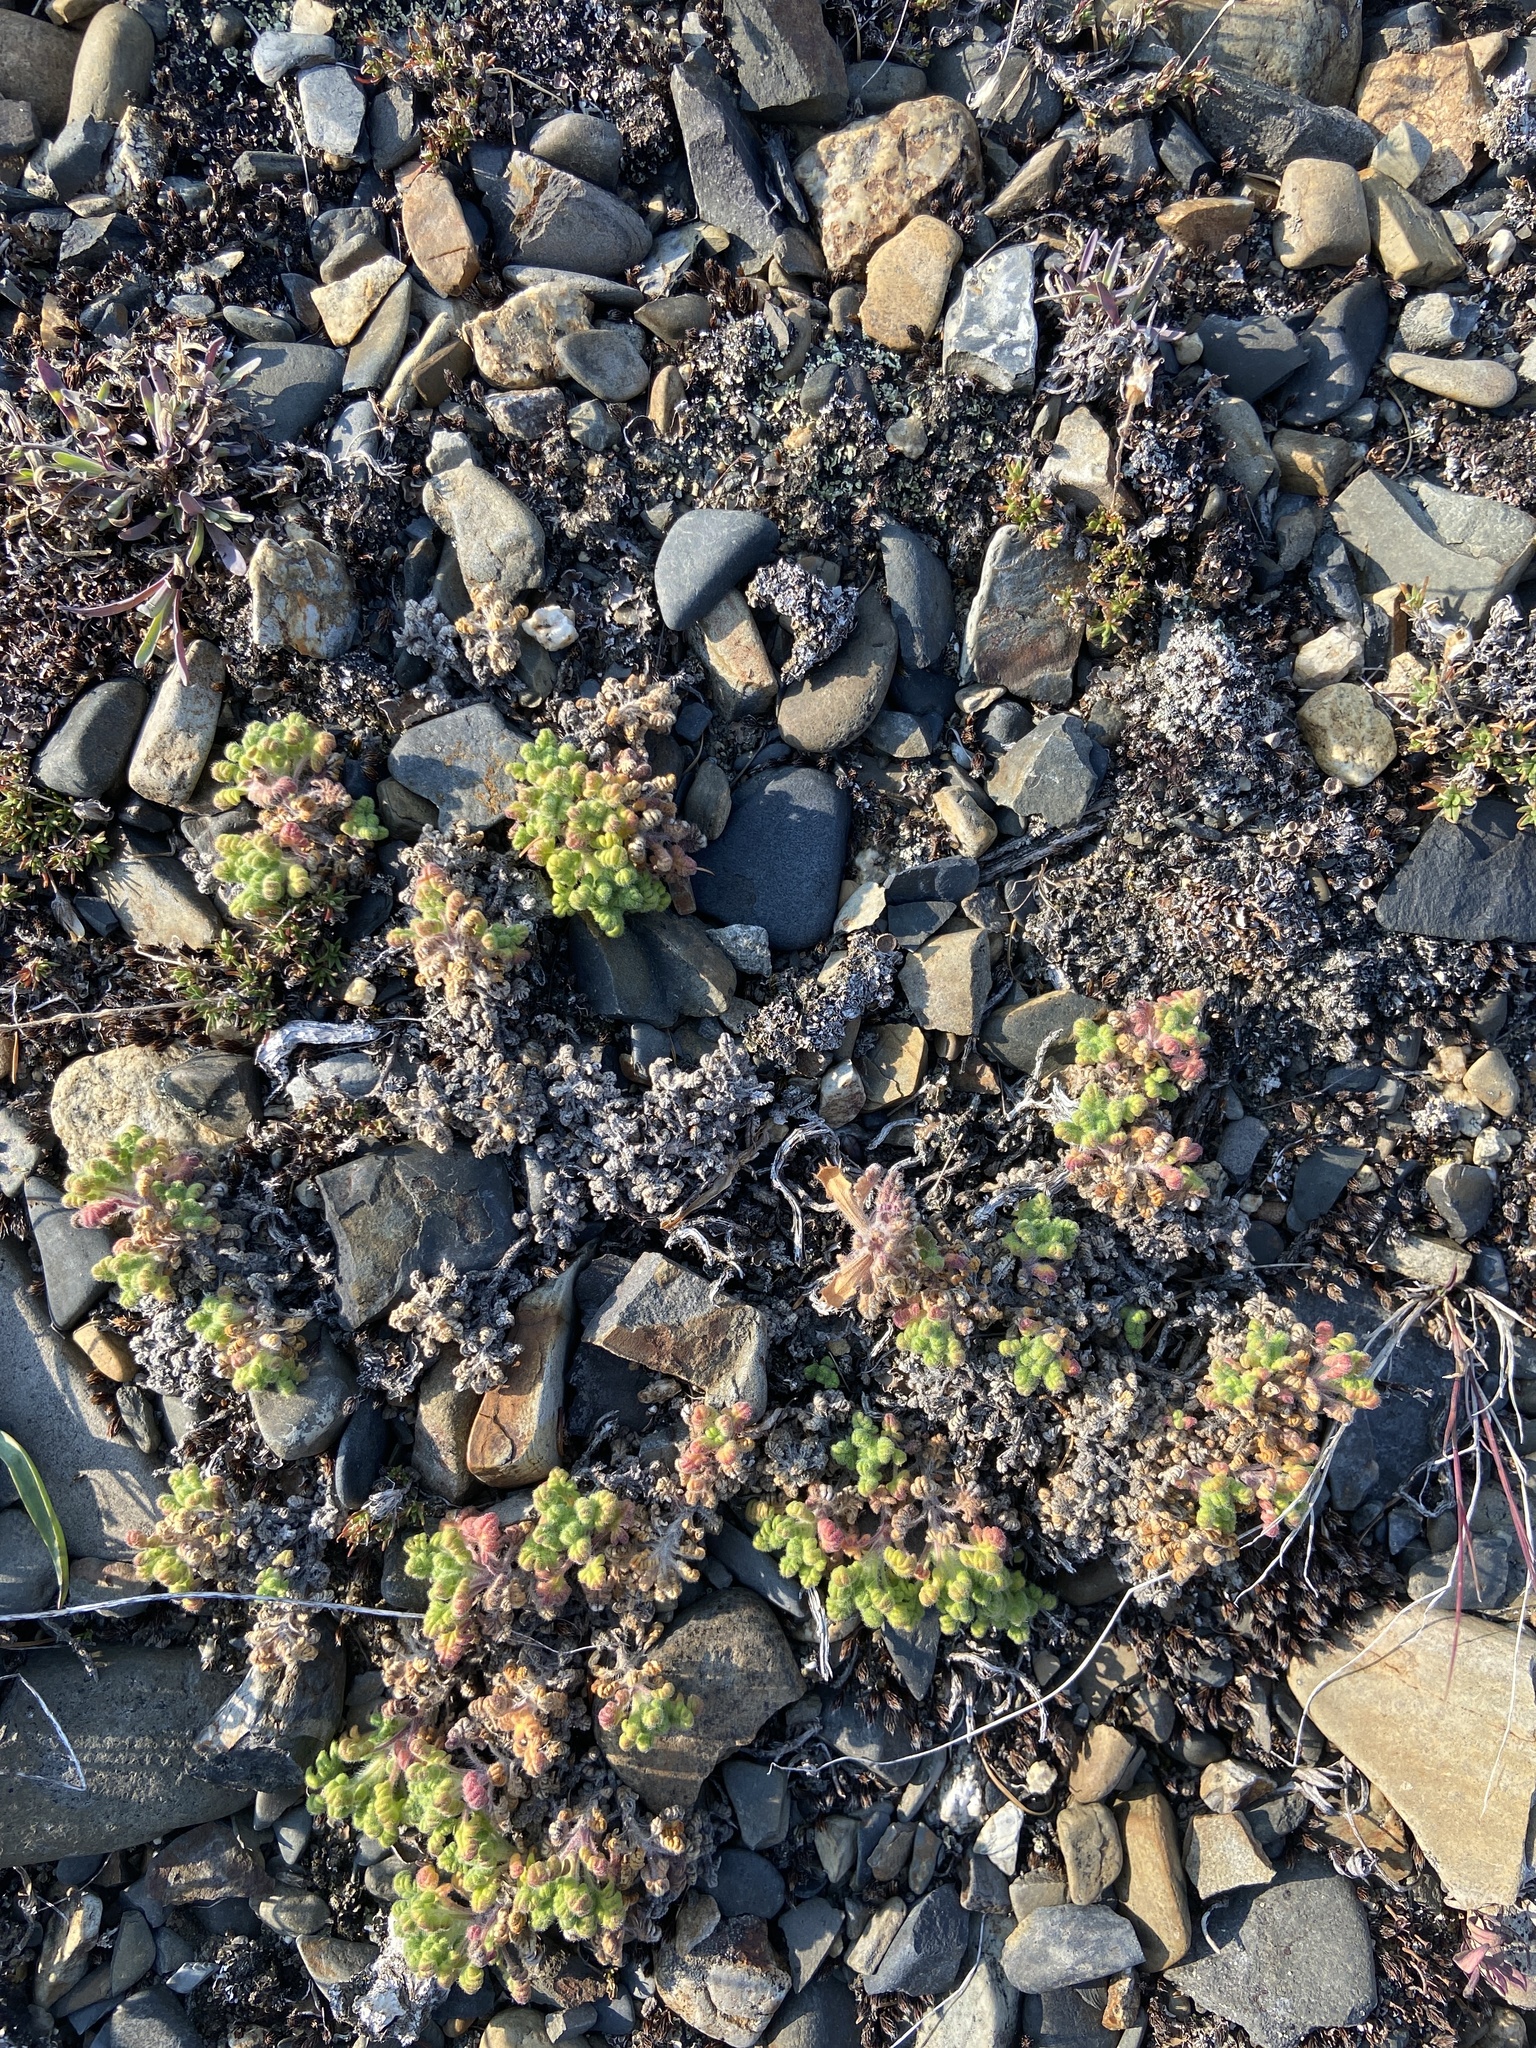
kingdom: Plantae
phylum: Tracheophyta
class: Magnoliopsida
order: Lamiales
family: Lamiaceae
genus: Dracocephalum
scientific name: Dracocephalum palmatum
